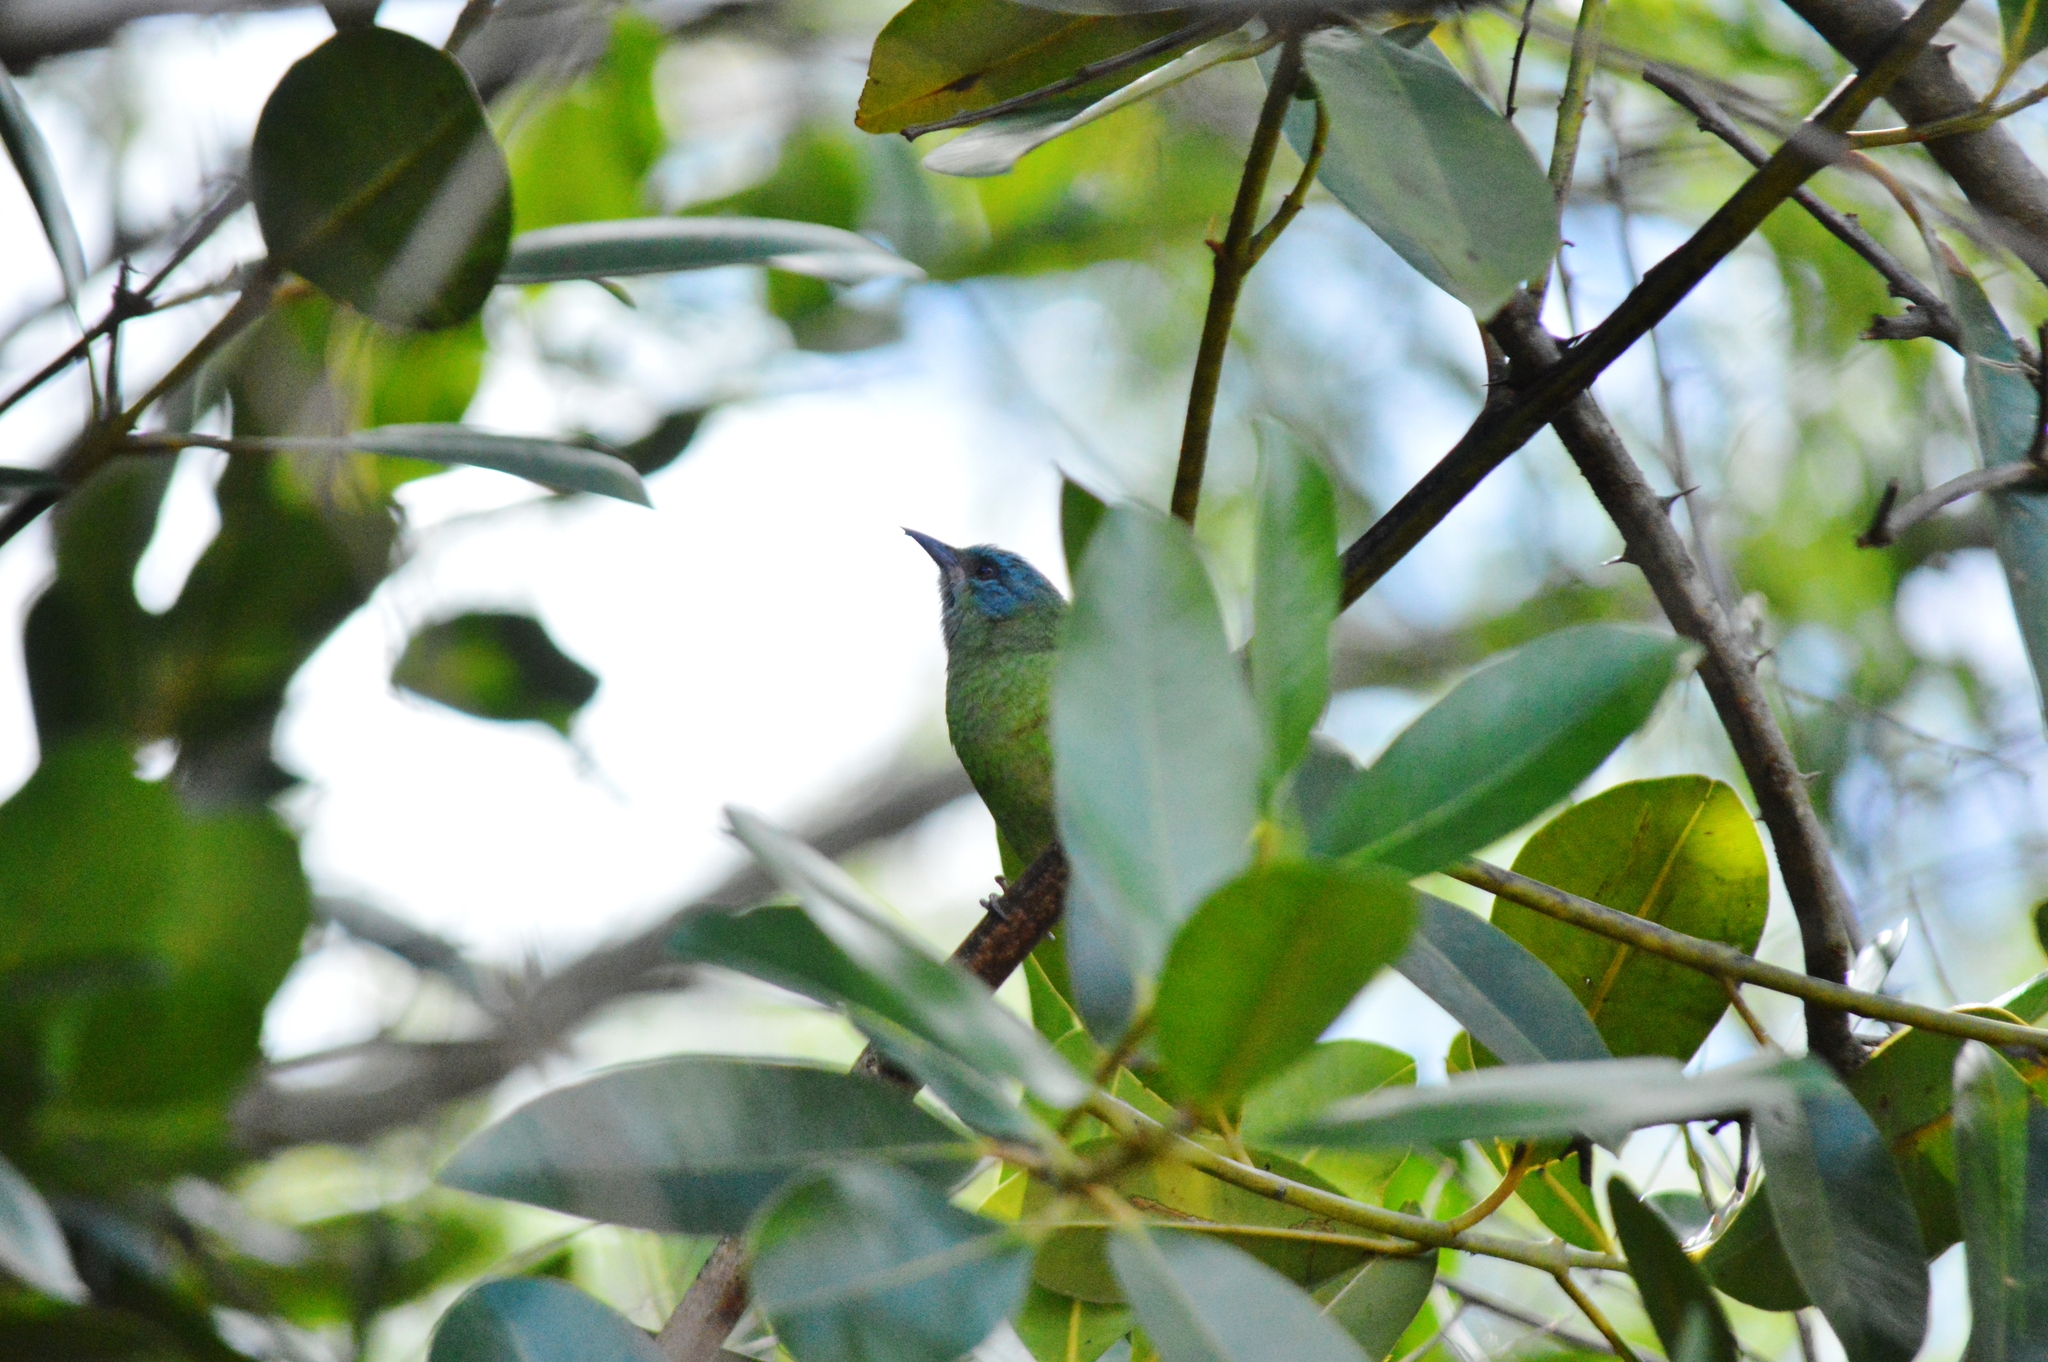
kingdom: Animalia
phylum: Chordata
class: Aves
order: Passeriformes
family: Thraupidae
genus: Dacnis
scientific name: Dacnis cayana
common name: Blue dacnis
